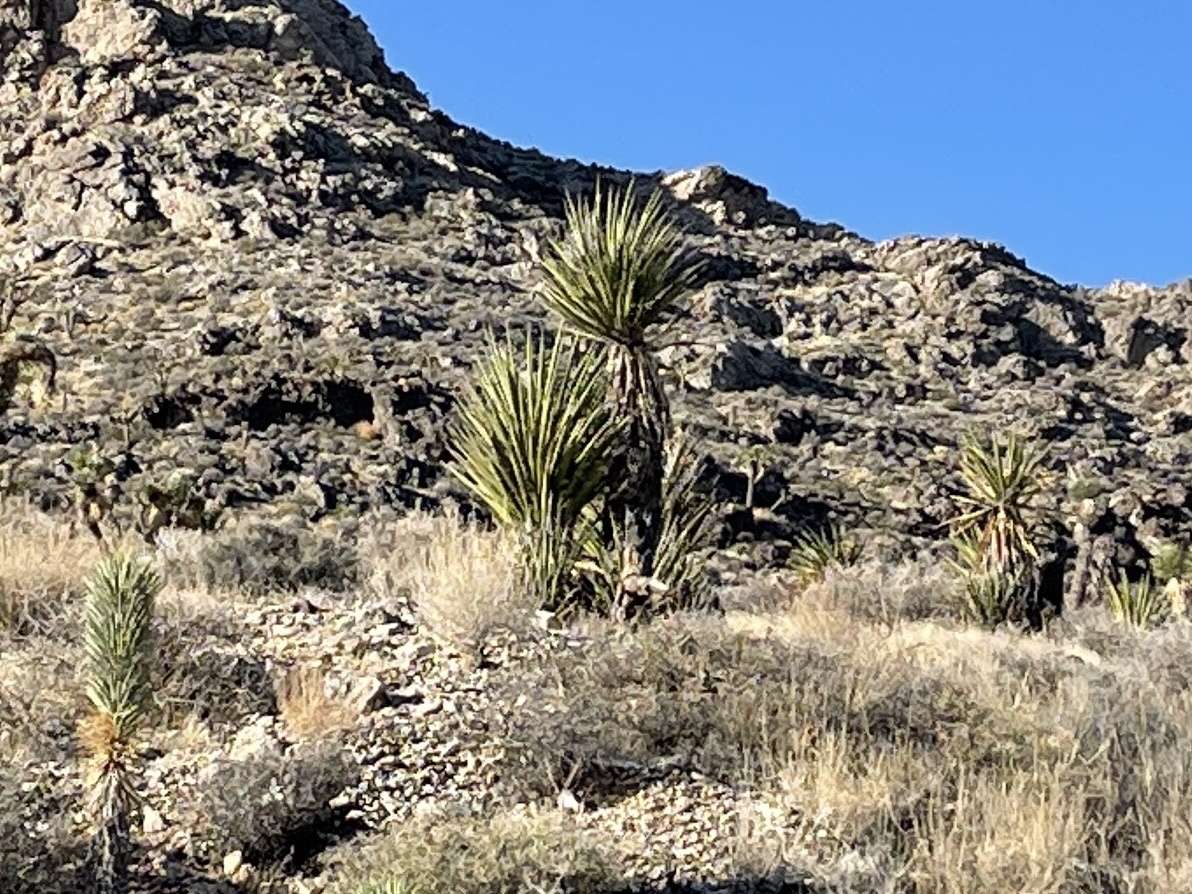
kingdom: Plantae
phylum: Tracheophyta
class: Liliopsida
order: Asparagales
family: Asparagaceae
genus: Yucca
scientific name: Yucca schidigera
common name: Mojave yucca
